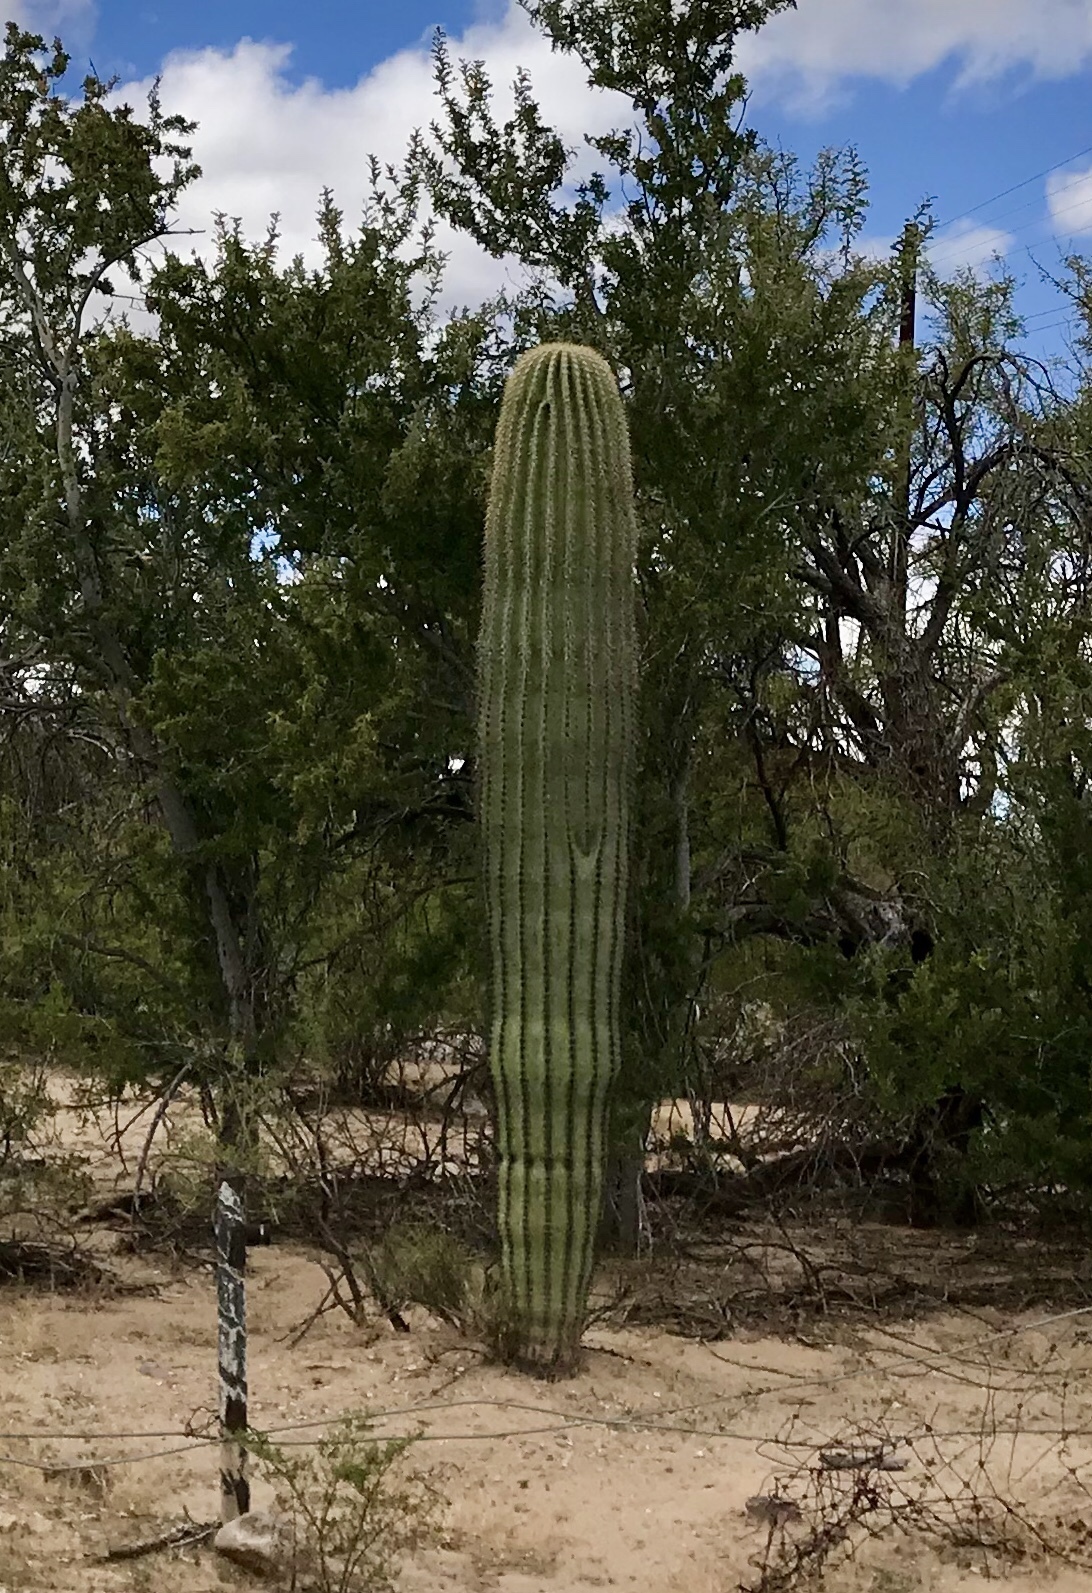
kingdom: Plantae
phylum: Tracheophyta
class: Magnoliopsida
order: Caryophyllales
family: Cactaceae
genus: Carnegiea
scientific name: Carnegiea gigantea
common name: Saguaro
